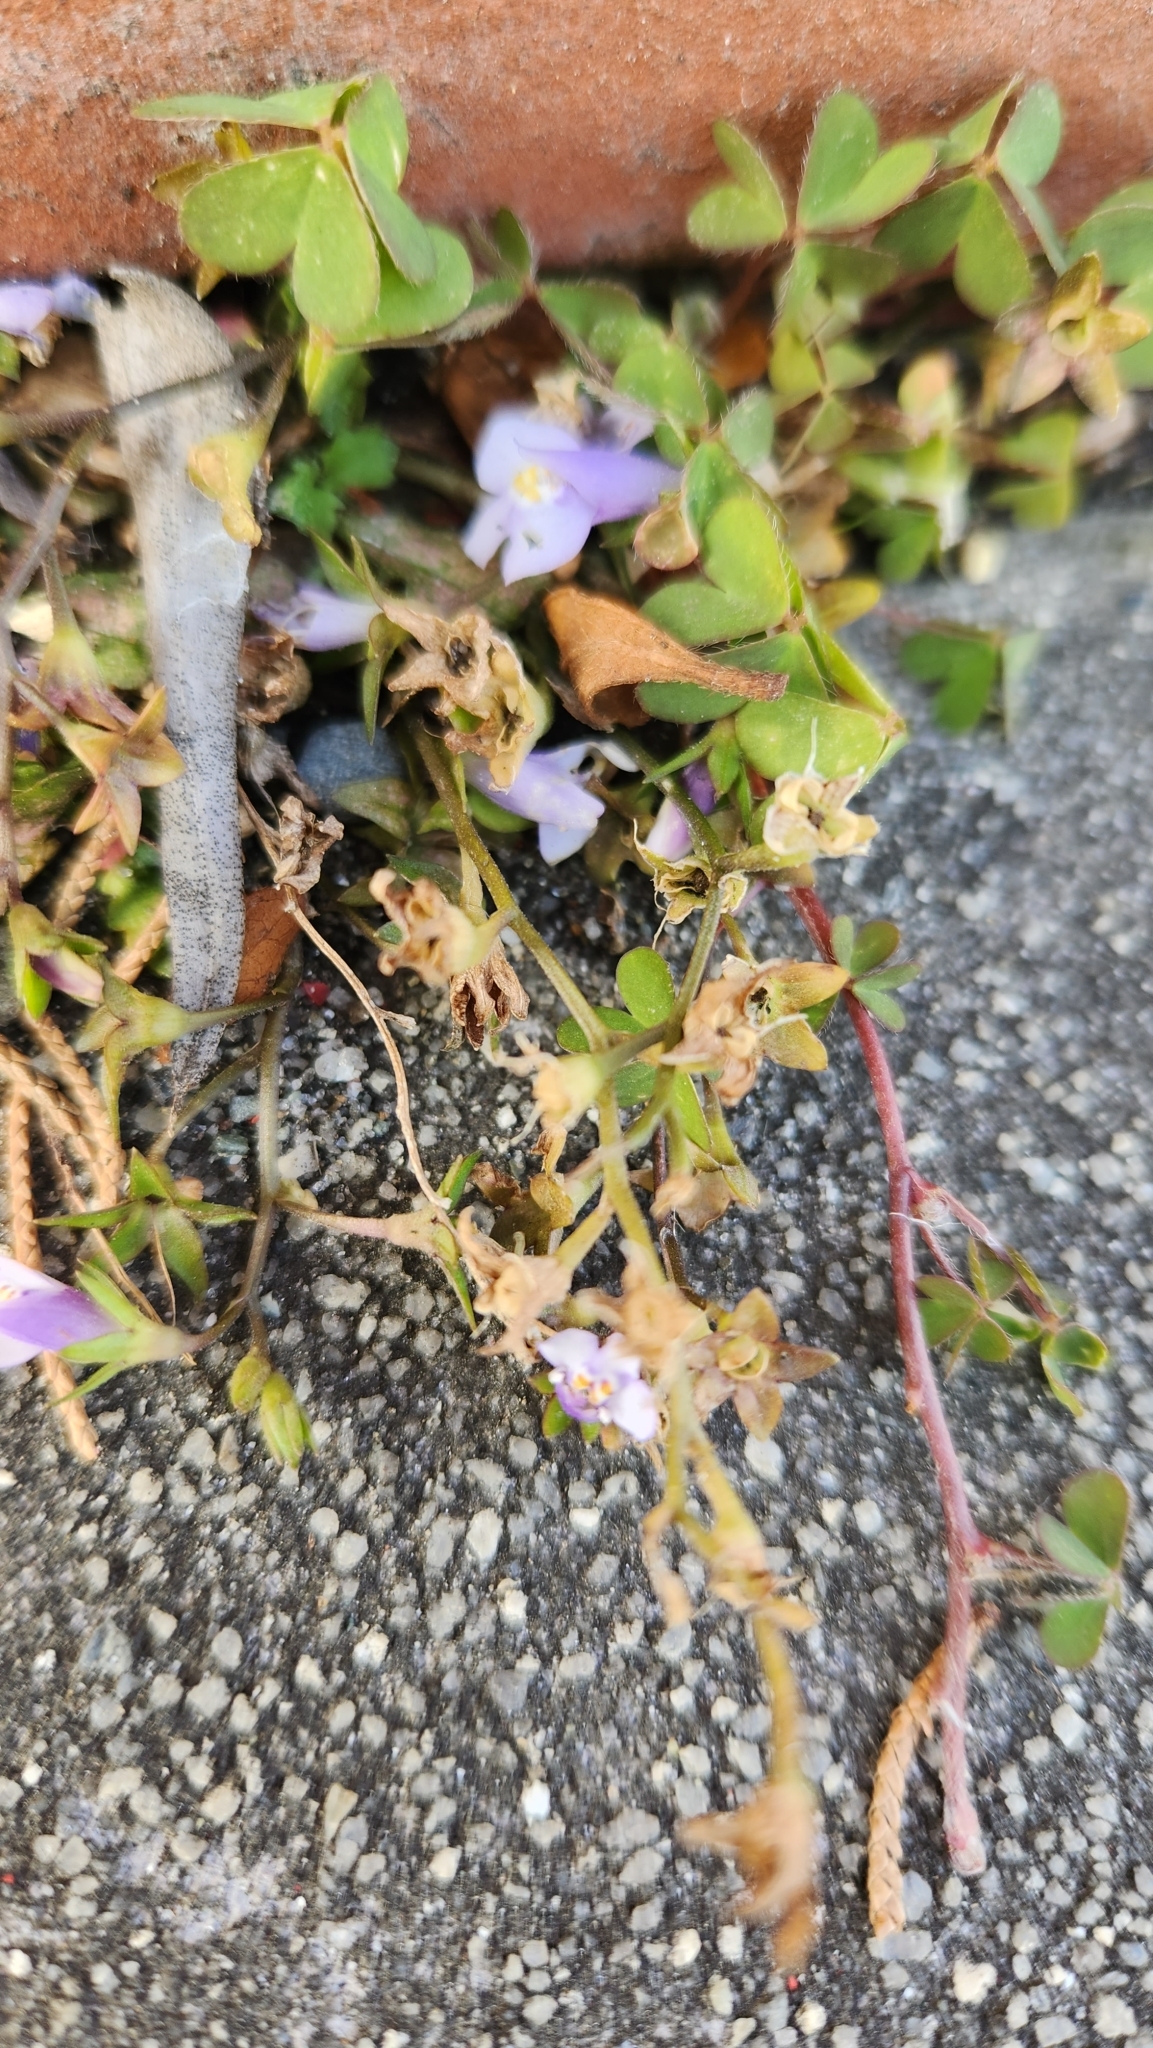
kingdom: Plantae
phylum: Tracheophyta
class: Magnoliopsida
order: Lamiales
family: Mazaceae
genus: Mazus
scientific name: Mazus pumilus
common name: Japanese mazus
